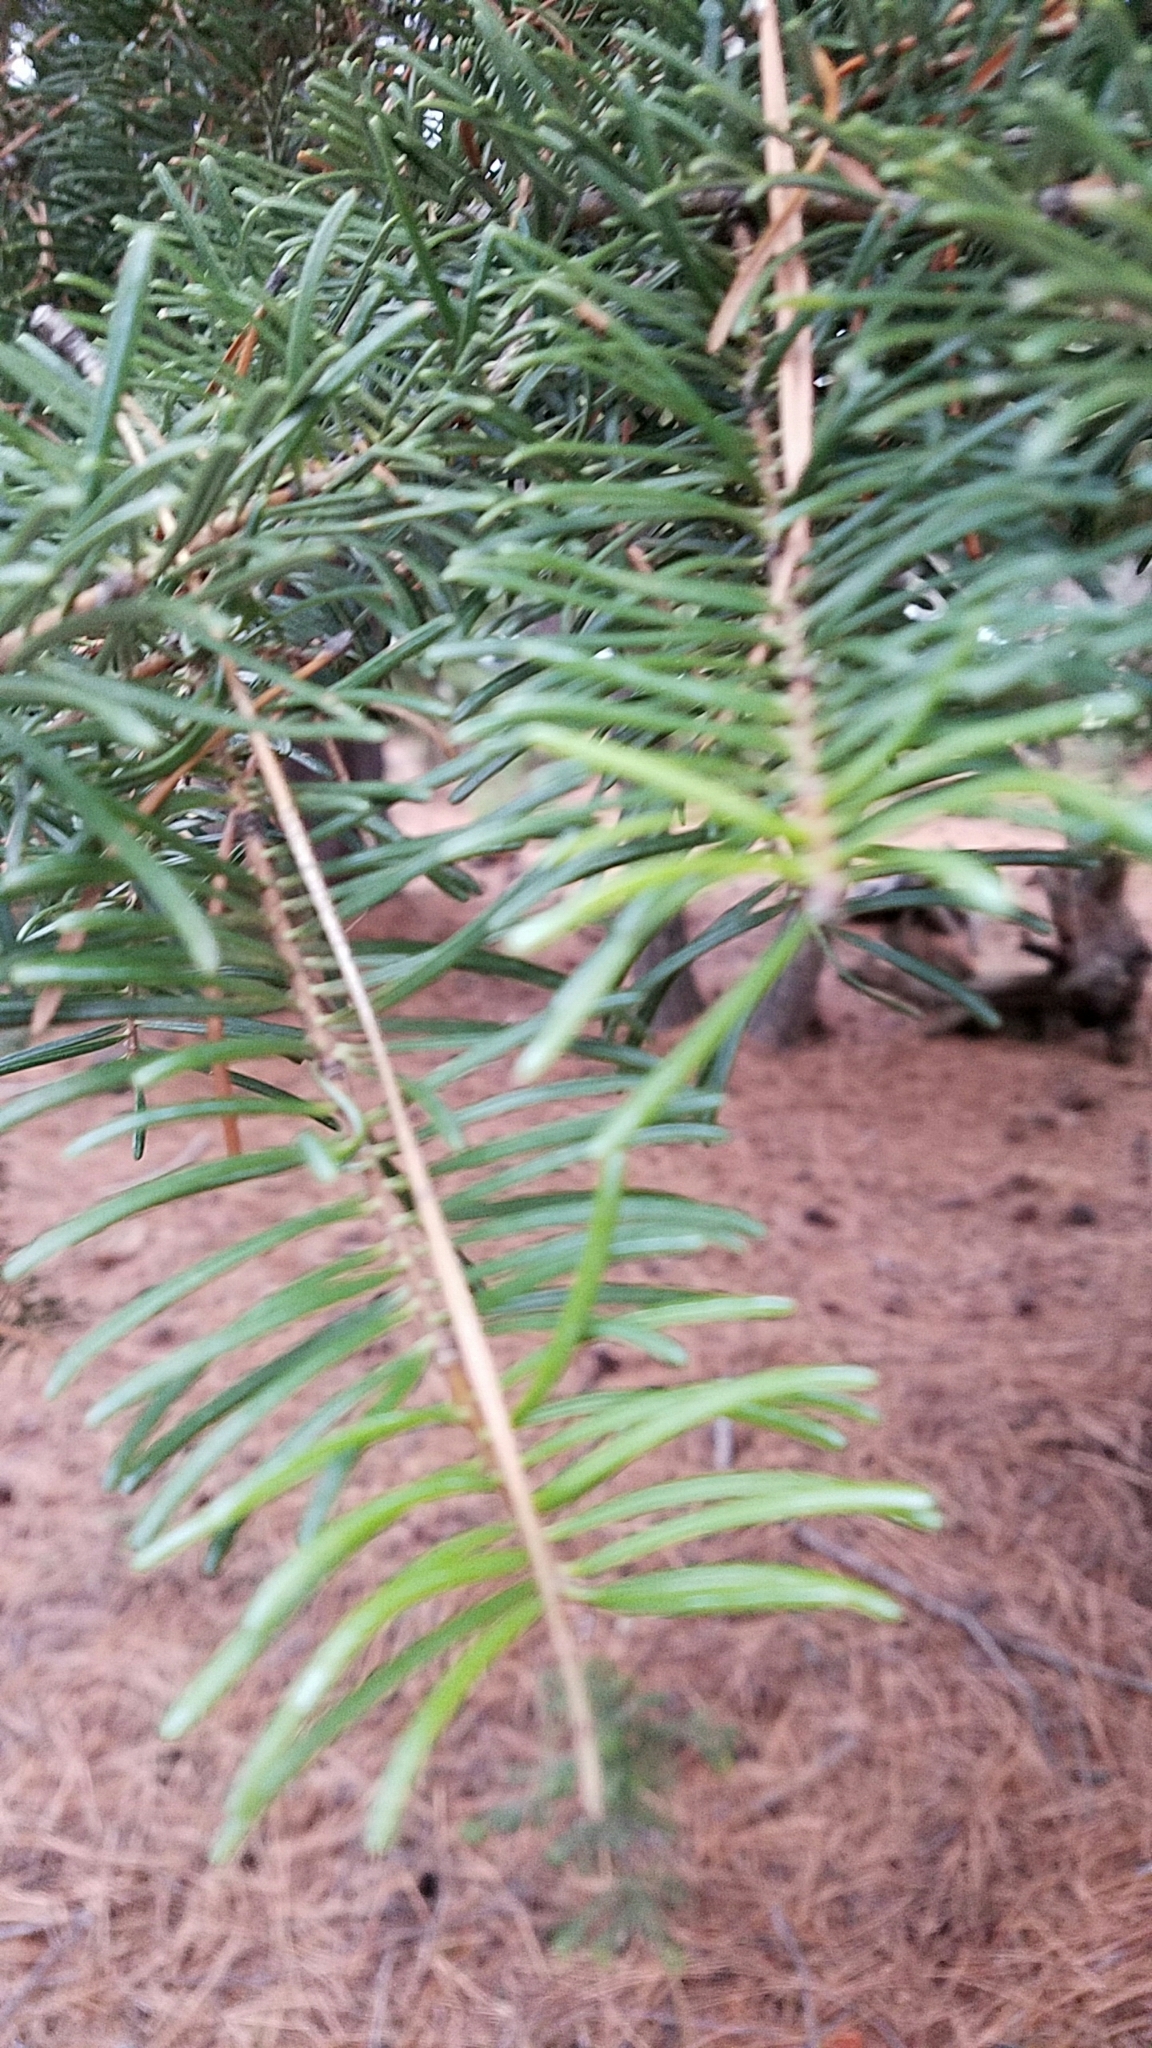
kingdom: Plantae
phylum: Tracheophyta
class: Pinopsida
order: Pinales
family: Pinaceae
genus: Abies
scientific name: Abies concolor
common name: Colorado fir
